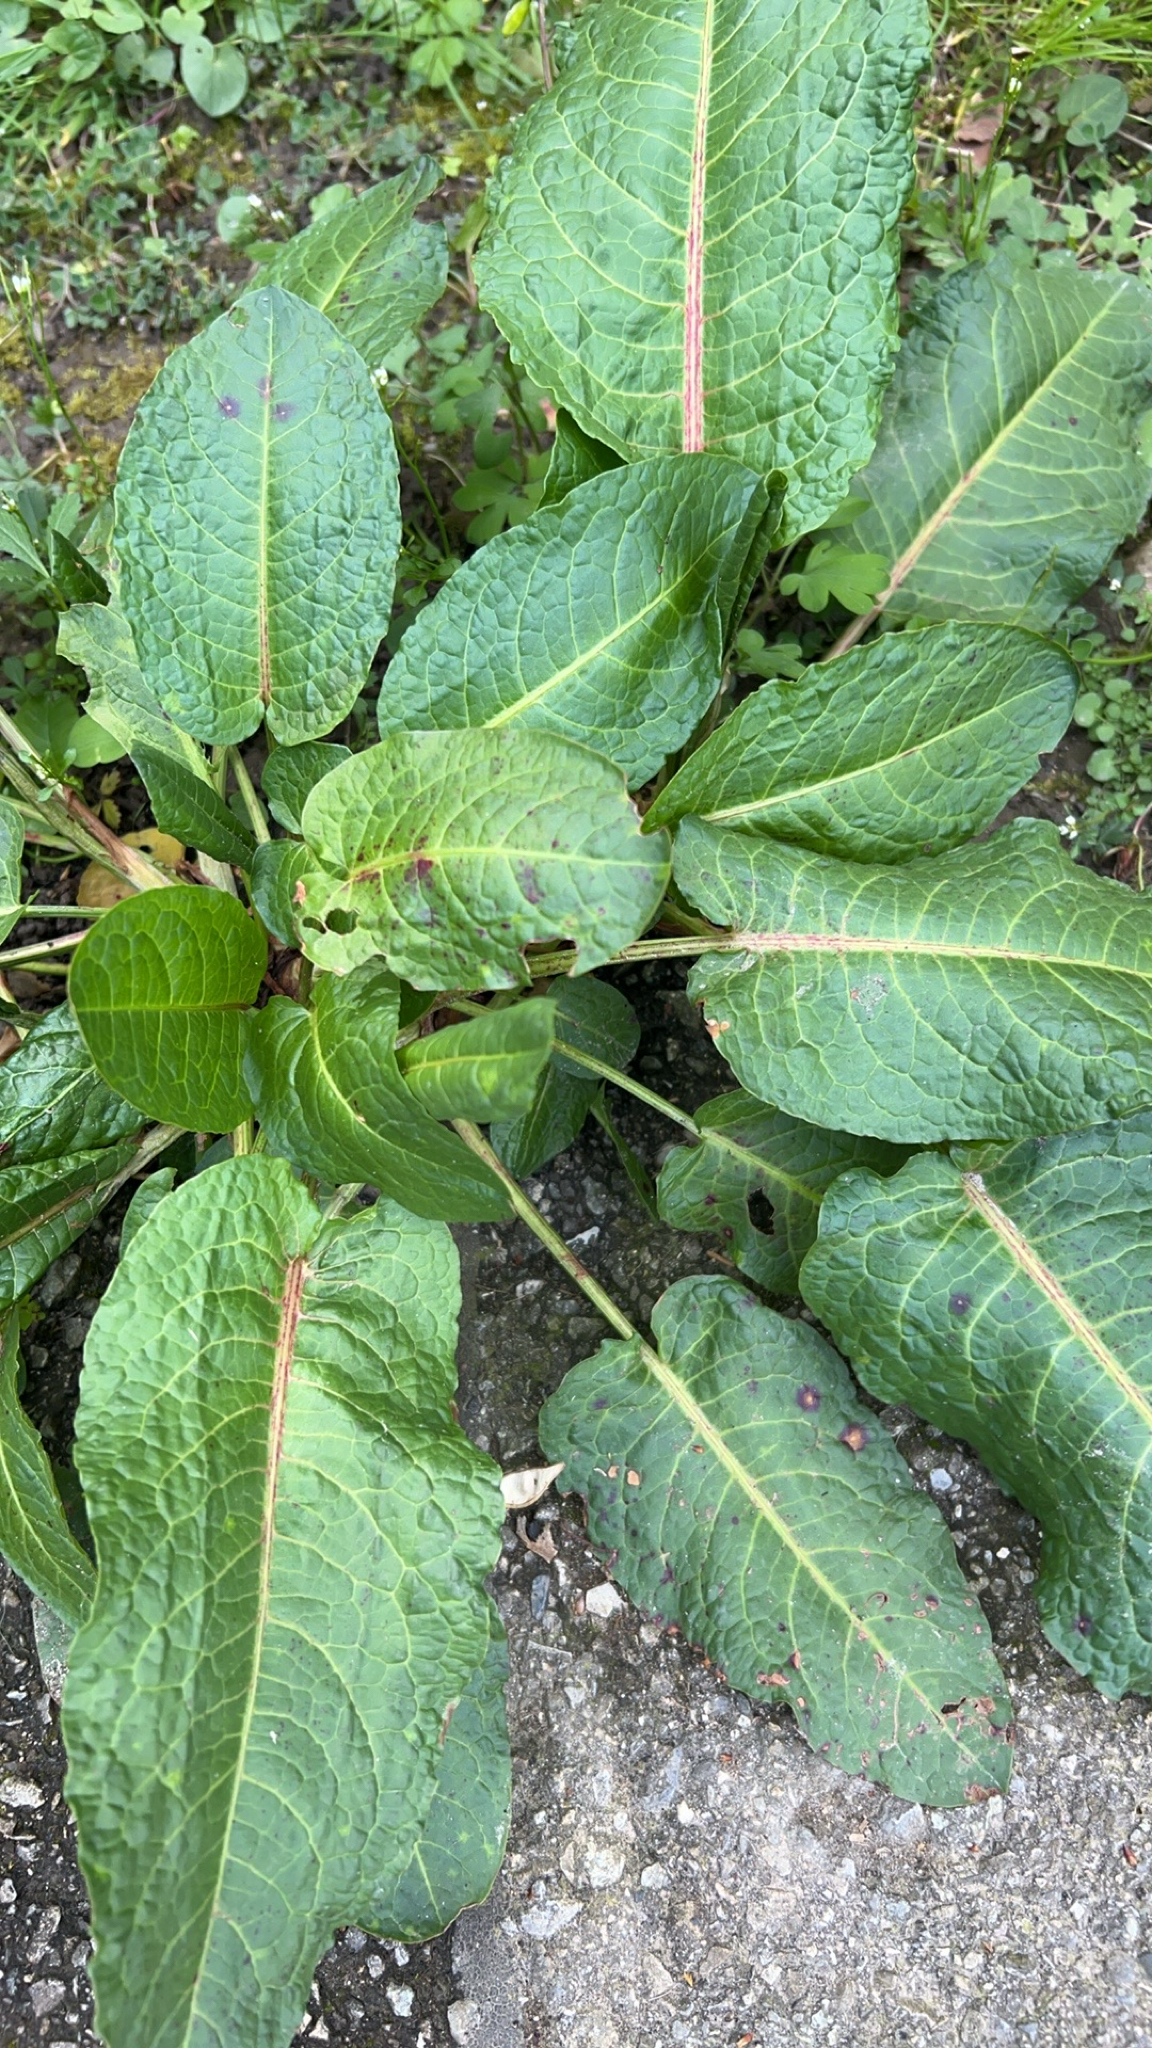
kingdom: Plantae
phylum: Tracheophyta
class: Magnoliopsida
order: Caryophyllales
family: Polygonaceae
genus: Rumex
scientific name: Rumex obtusifolius
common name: Bitter dock
